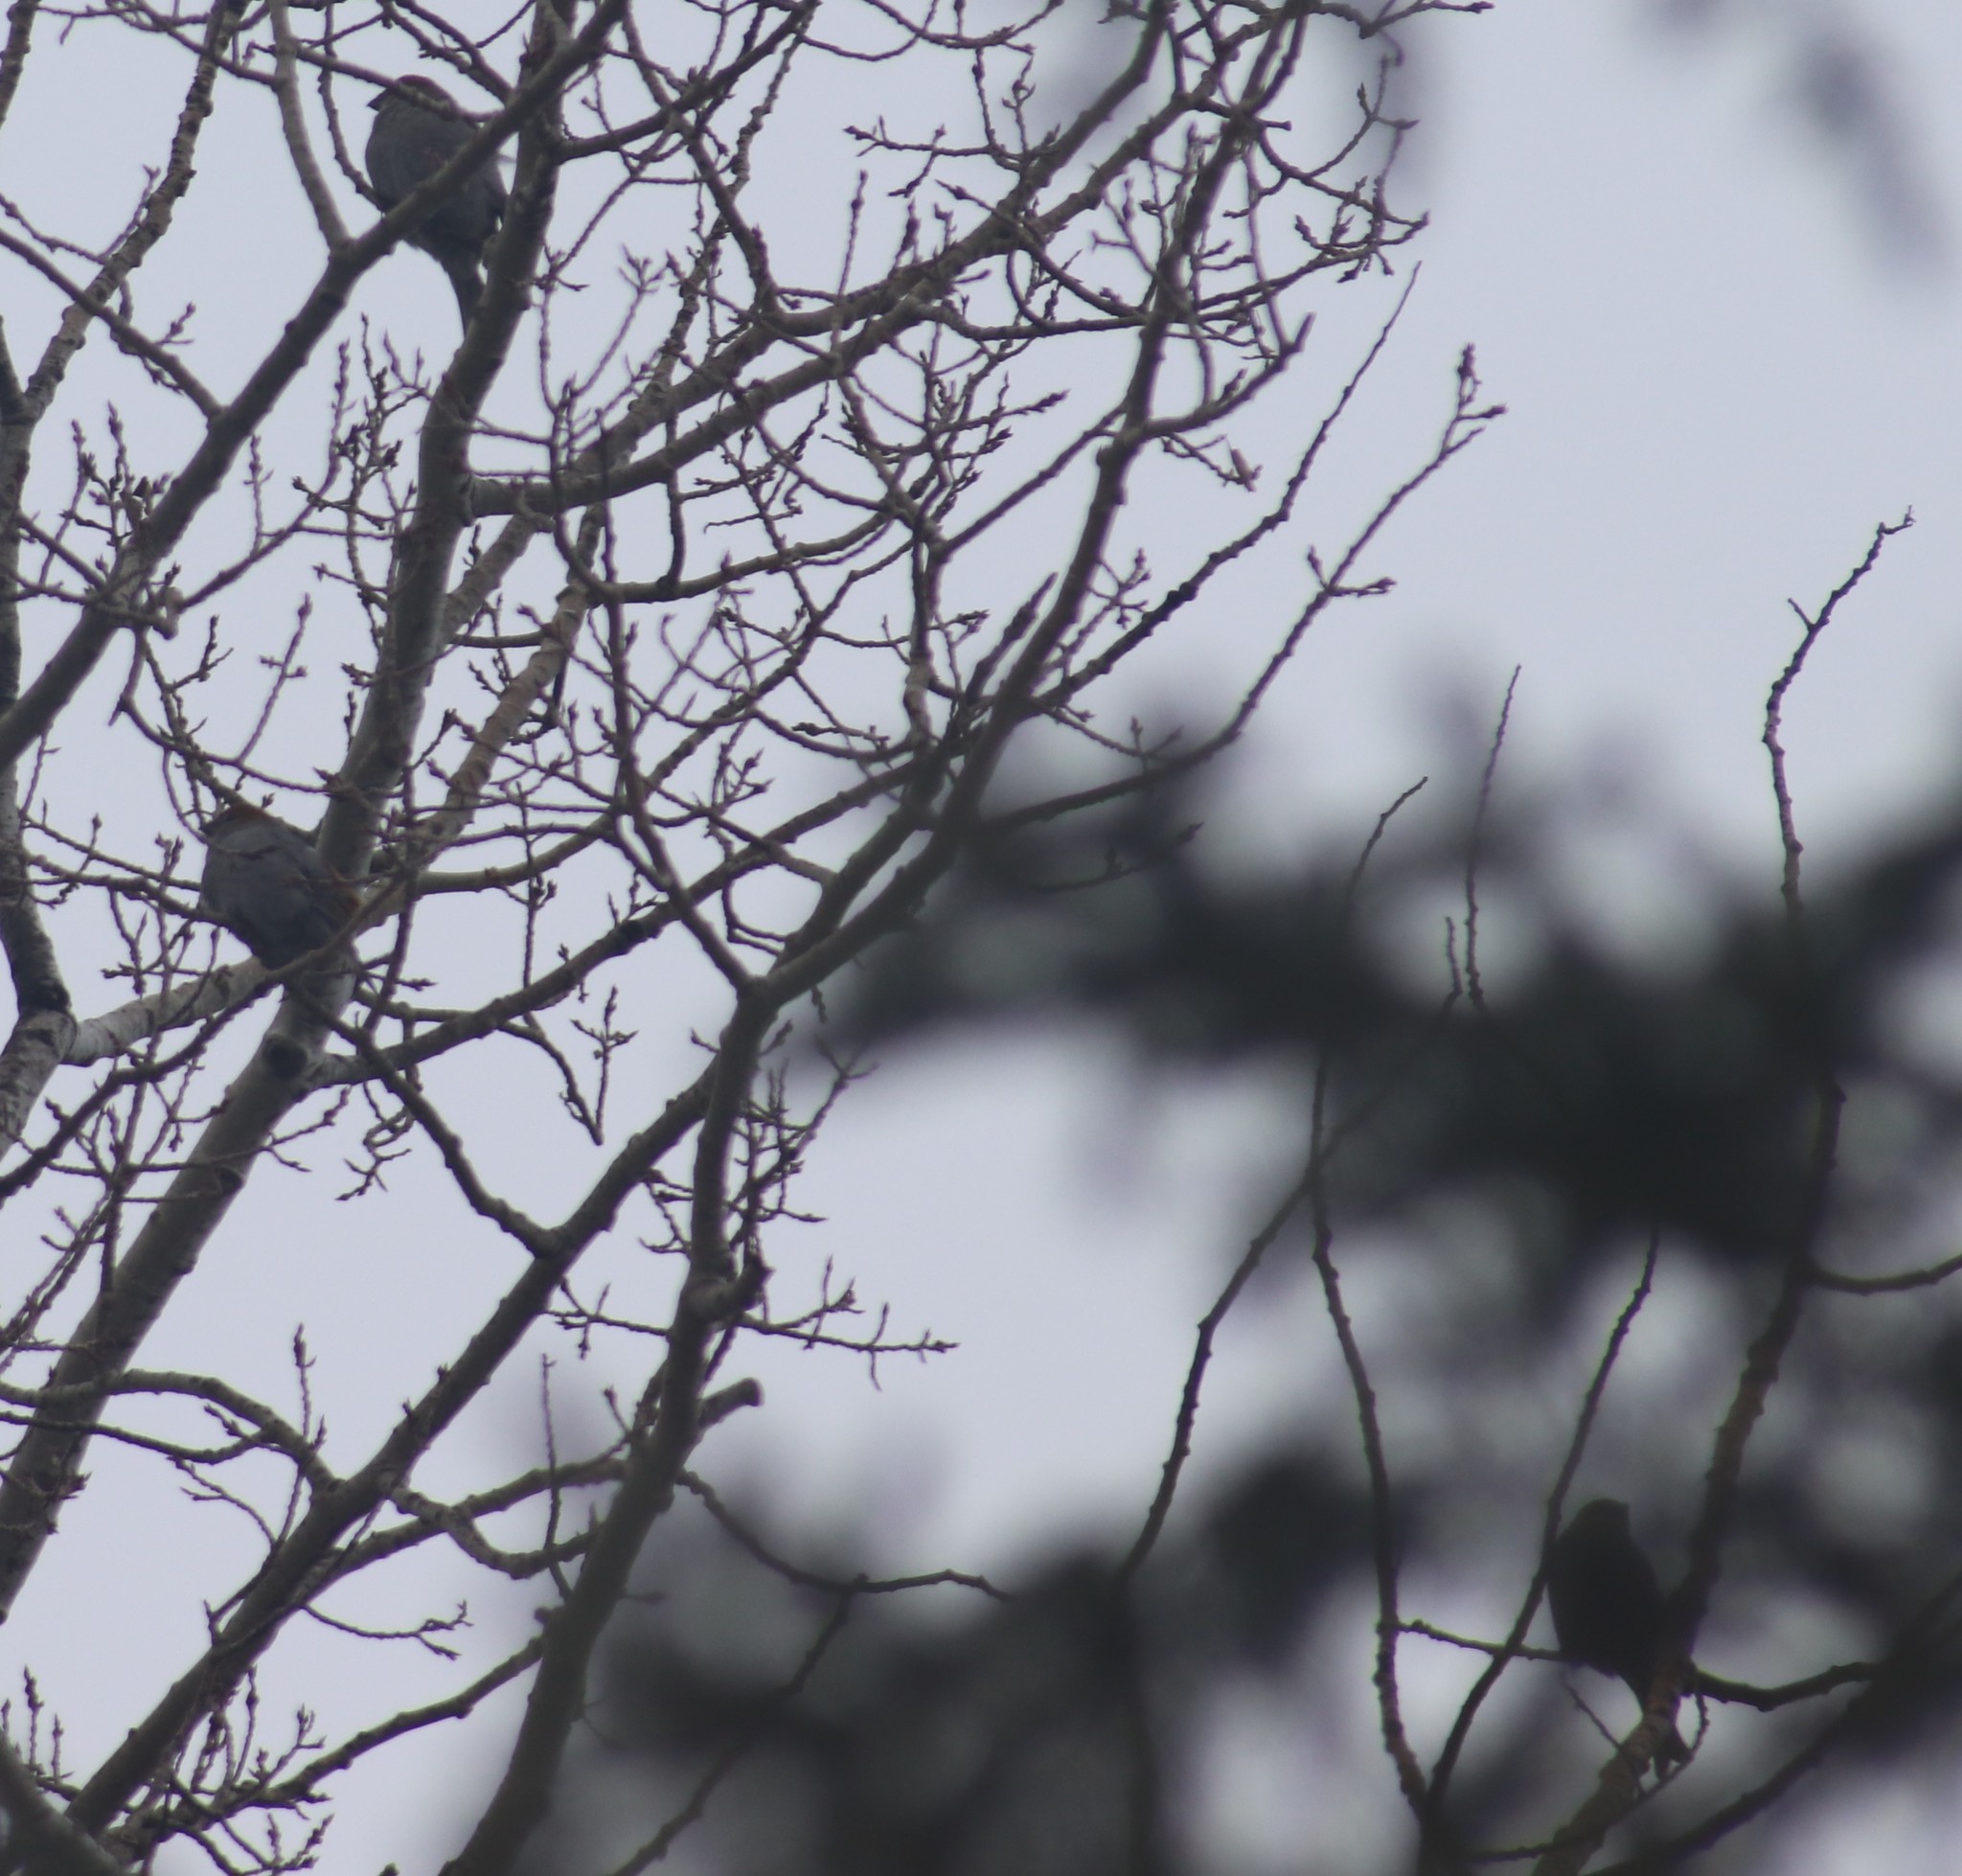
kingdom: Animalia
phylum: Chordata
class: Aves
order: Passeriformes
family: Fringillidae
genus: Pinicola
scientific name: Pinicola enucleator
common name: Pine grosbeak
